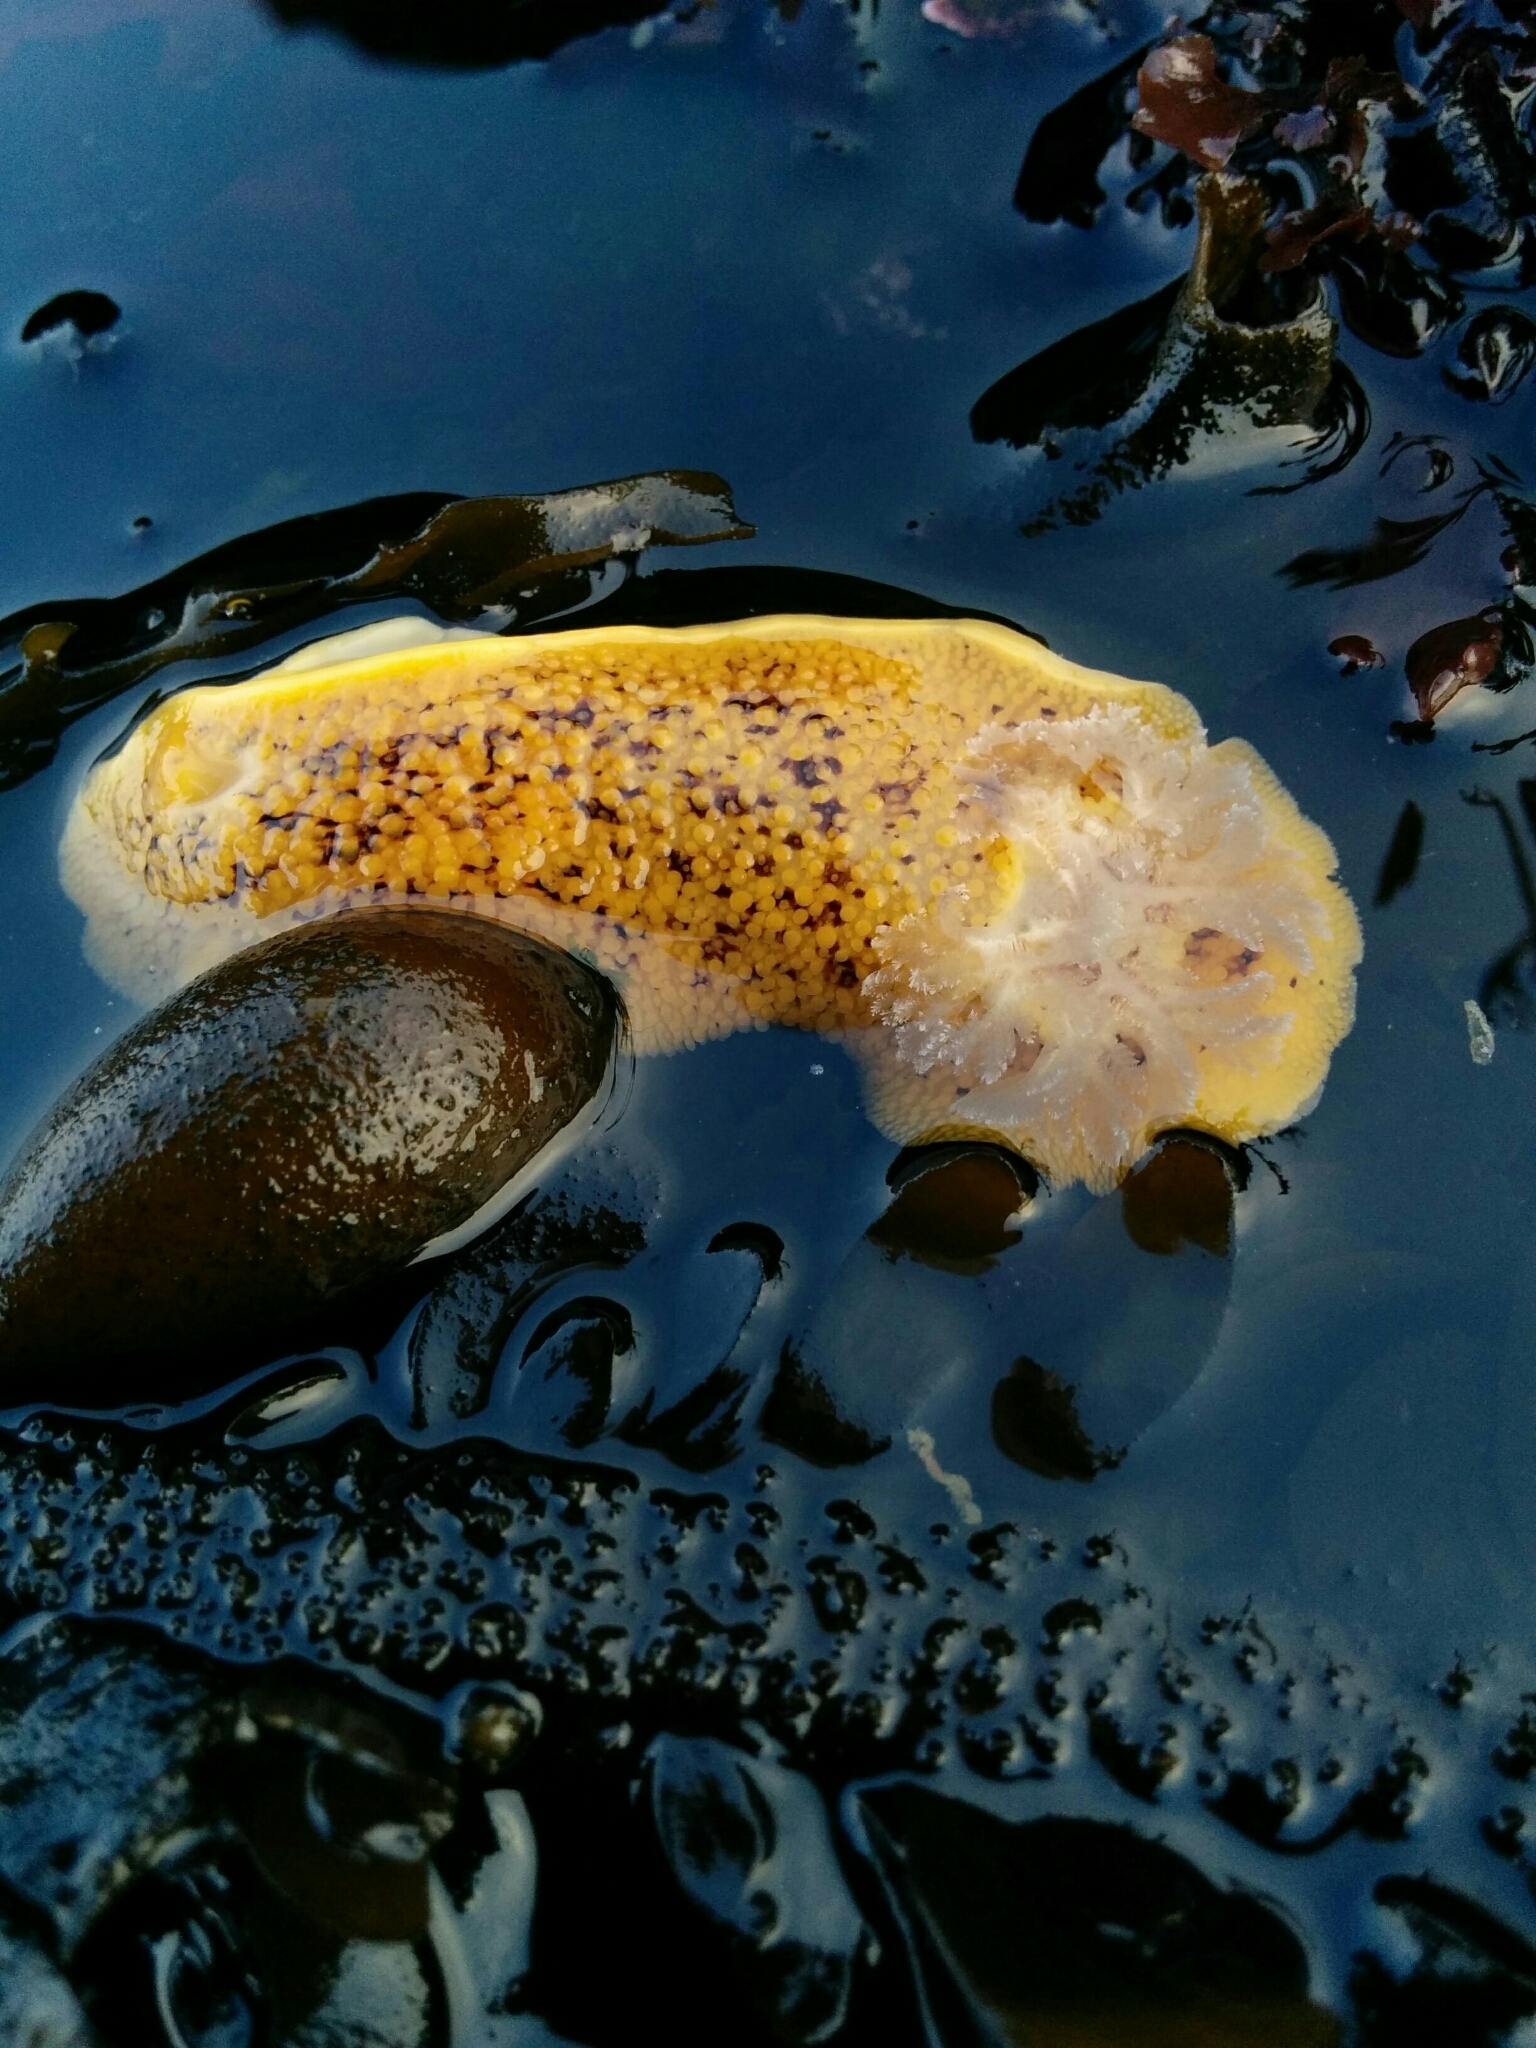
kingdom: Animalia
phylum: Mollusca
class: Gastropoda
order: Nudibranchia
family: Discodorididae
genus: Peltodoris
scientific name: Peltodoris nobilis
